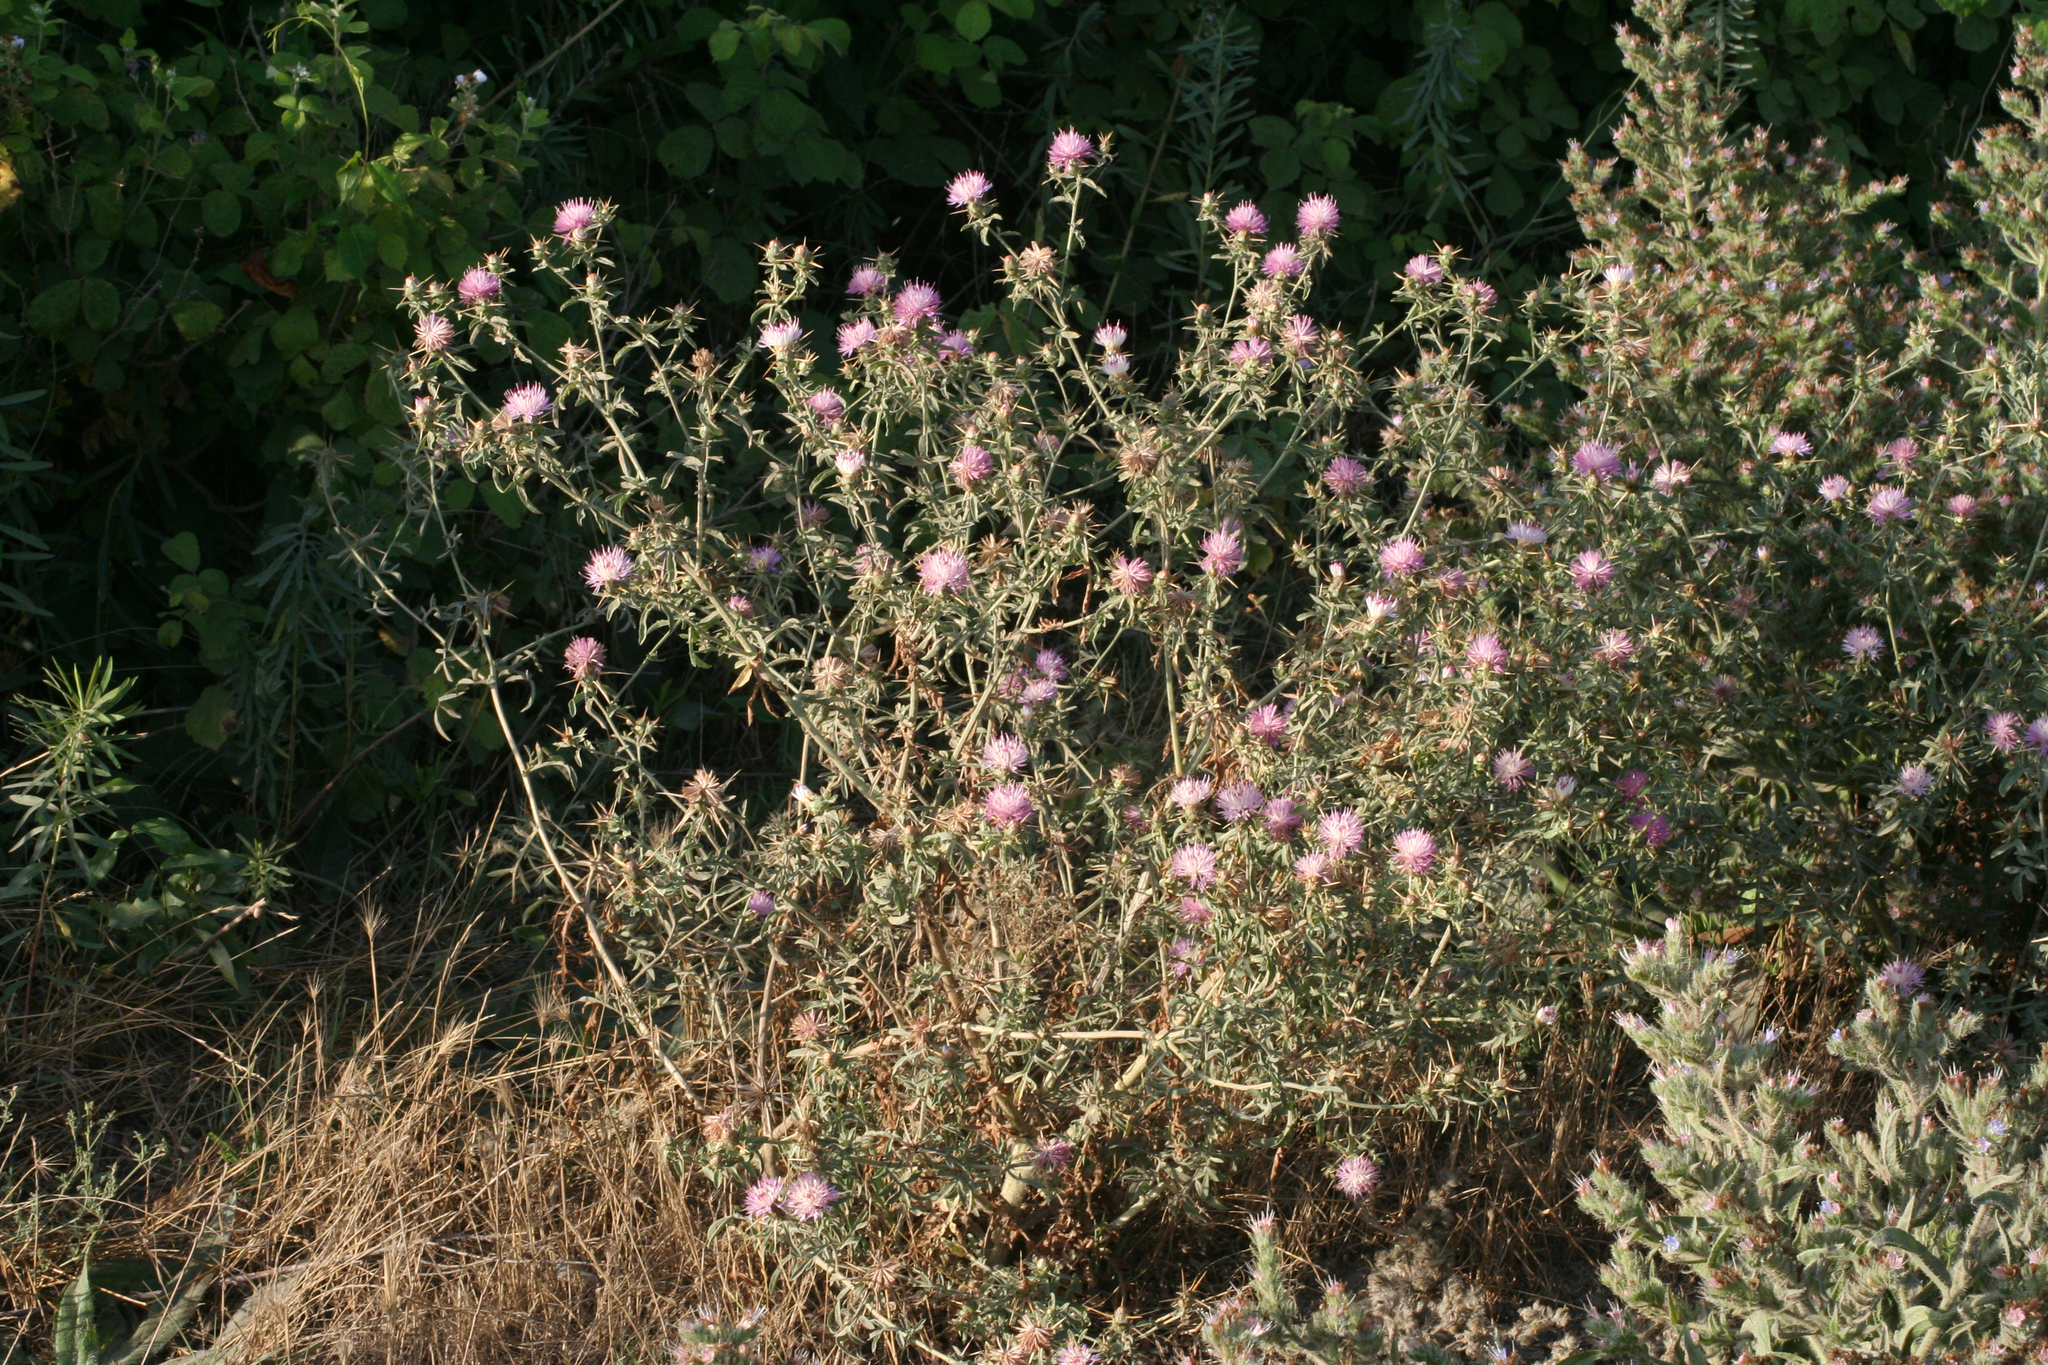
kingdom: Plantae
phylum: Tracheophyta
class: Magnoliopsida
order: Asterales
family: Asteraceae
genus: Centaurea
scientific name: Centaurea iberica
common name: Iberian knapweed
